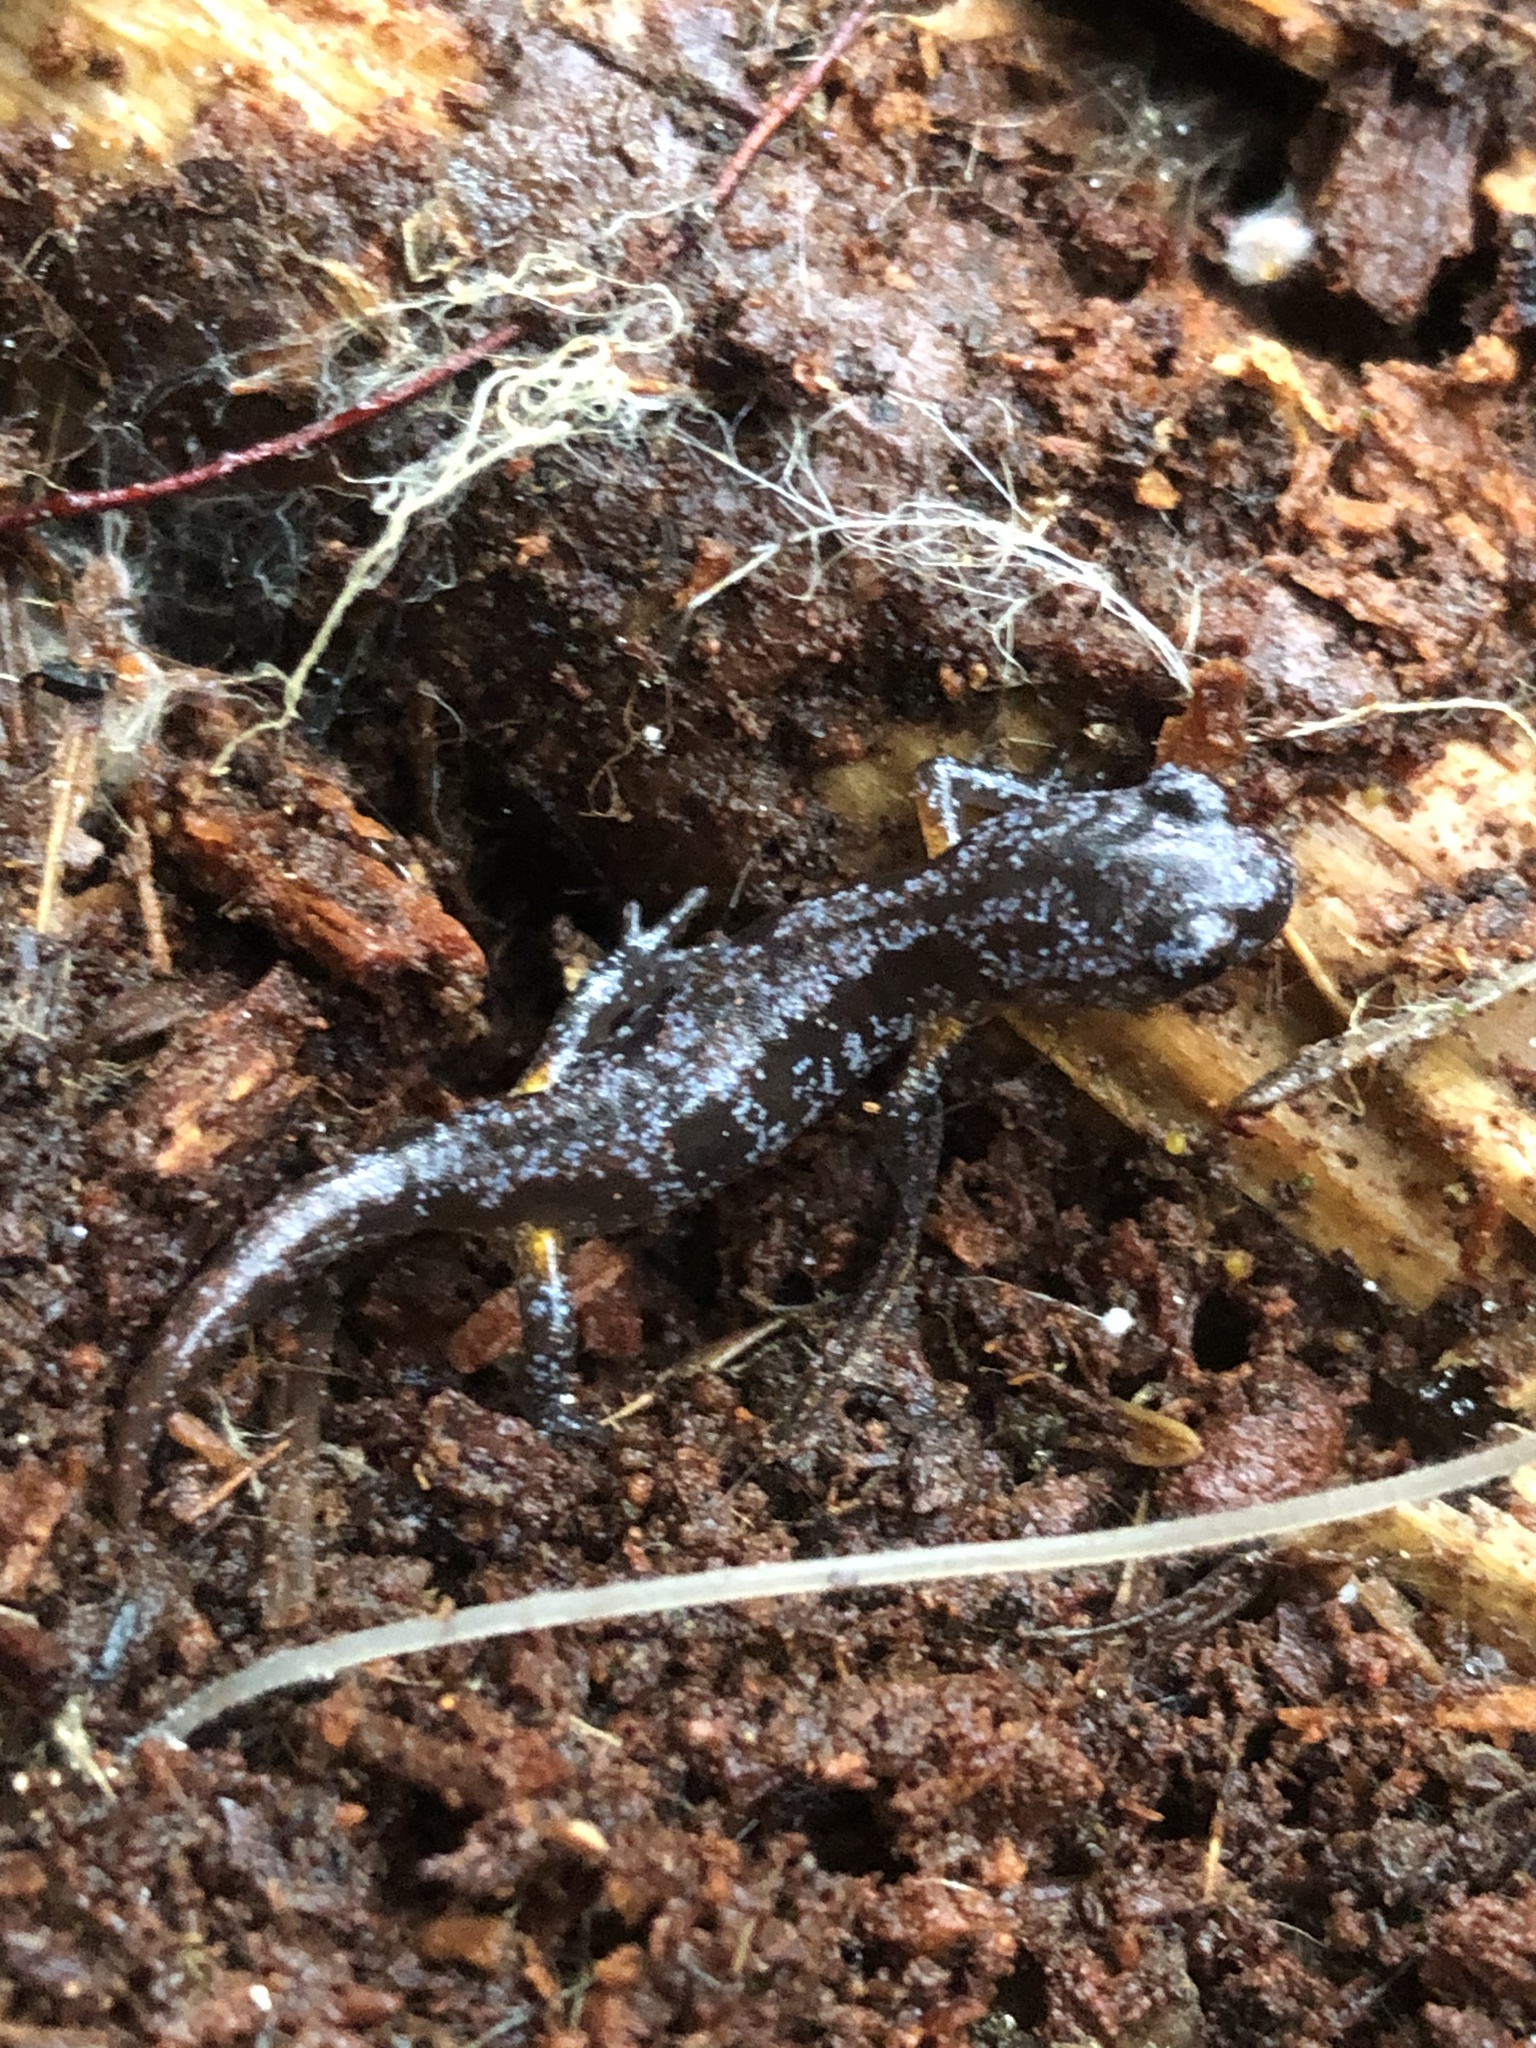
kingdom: Animalia
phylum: Chordata
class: Amphibia
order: Caudata
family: Plethodontidae
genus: Ensatina
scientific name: Ensatina eschscholtzii
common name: Ensatina
